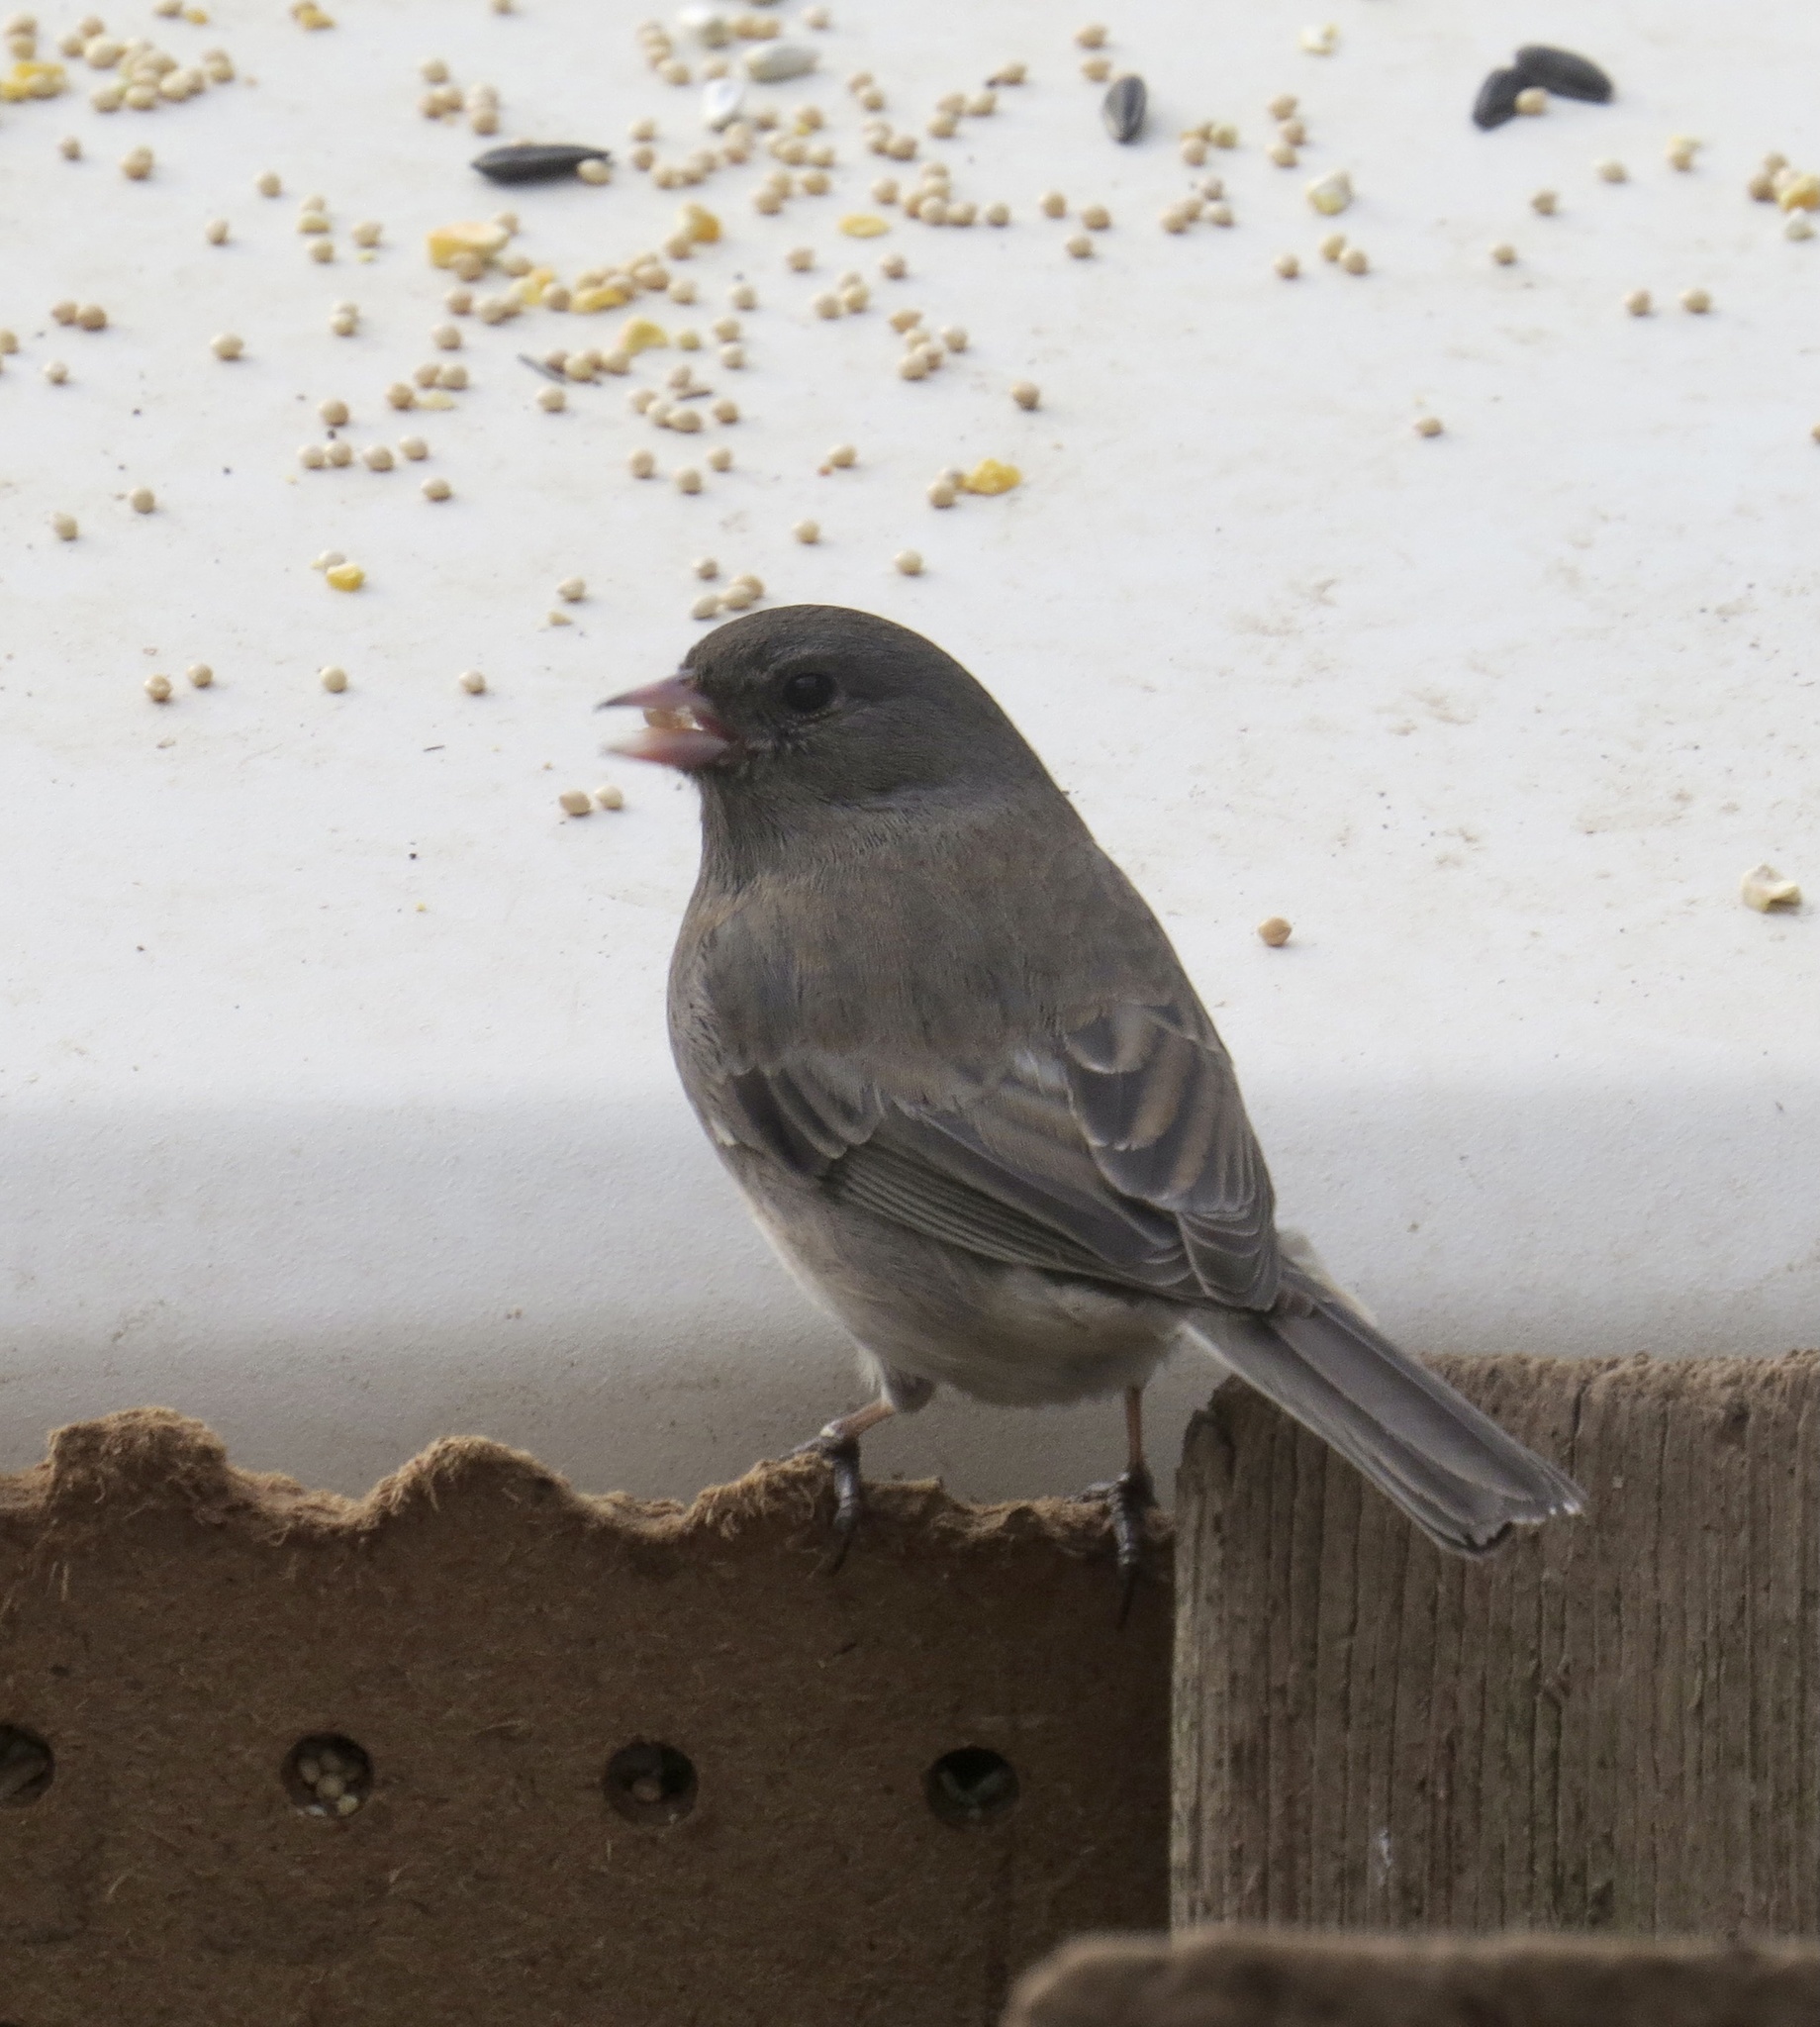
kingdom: Animalia
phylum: Chordata
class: Aves
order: Passeriformes
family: Passerellidae
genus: Junco
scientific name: Junco hyemalis
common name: Dark-eyed junco
